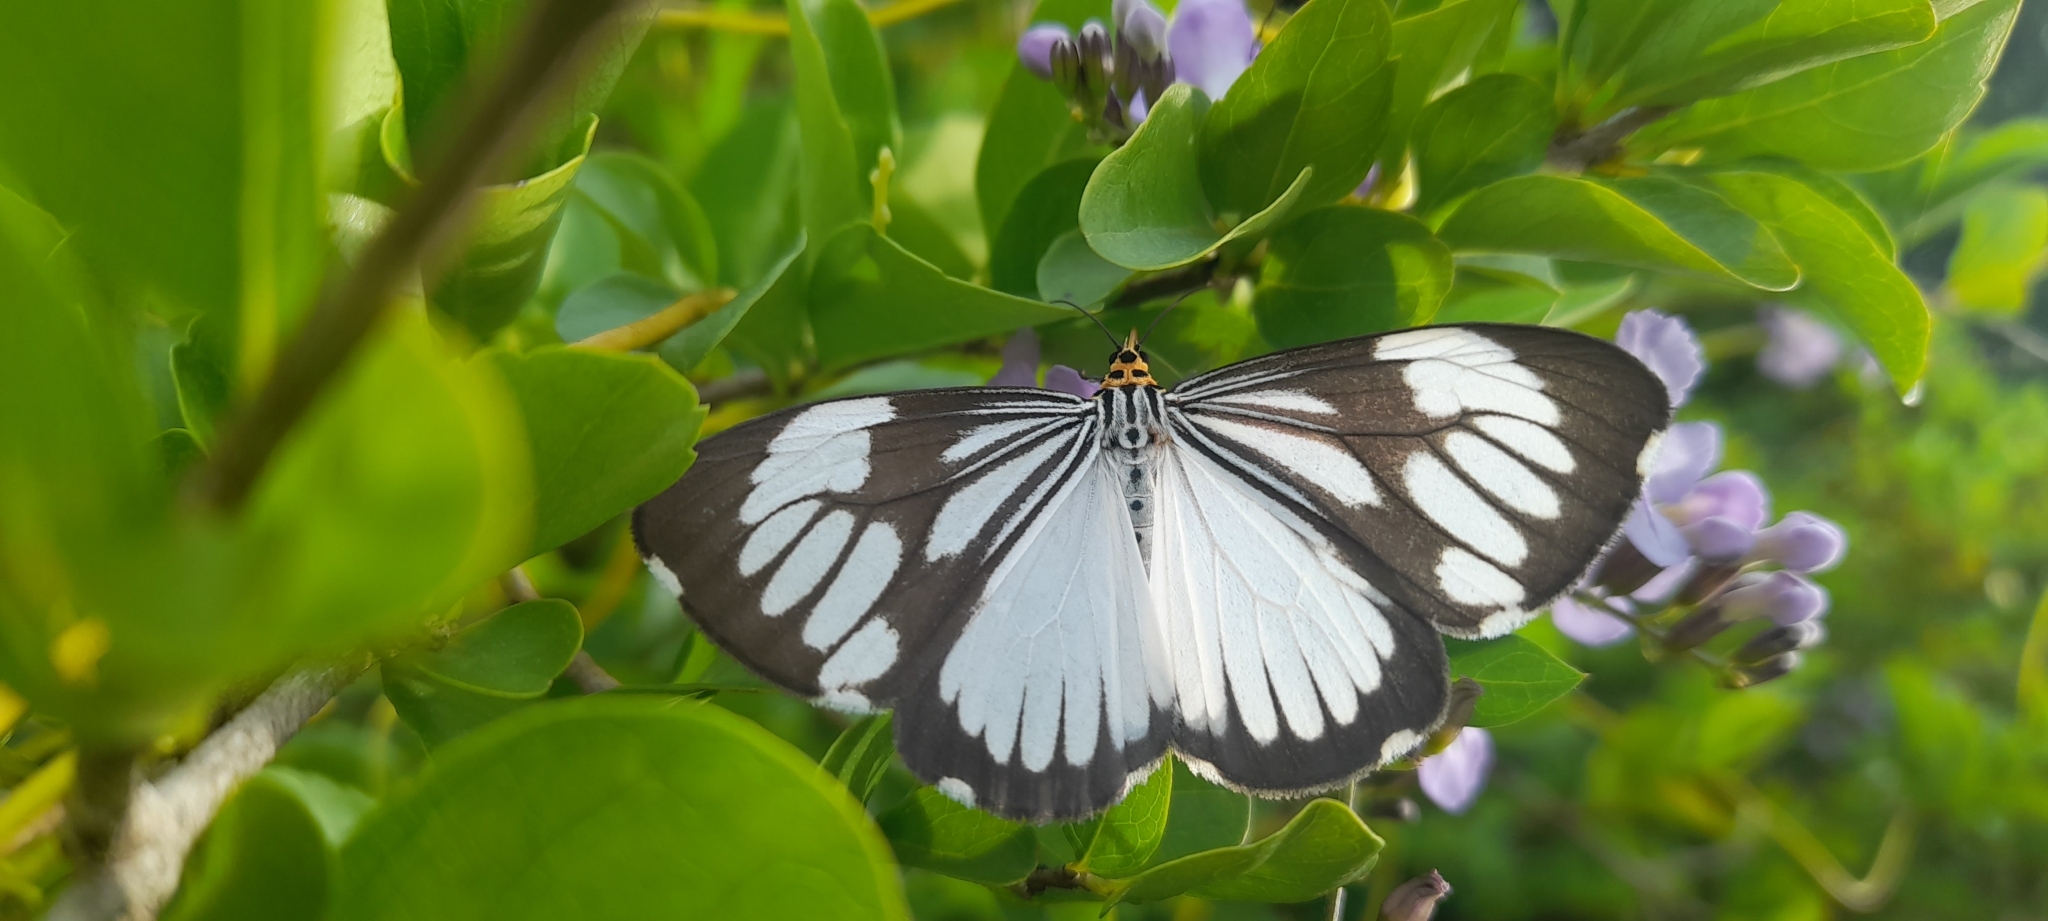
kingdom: Animalia
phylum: Arthropoda
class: Insecta
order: Lepidoptera
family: Erebidae
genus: Nyctemera
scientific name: Nyctemera coleta
